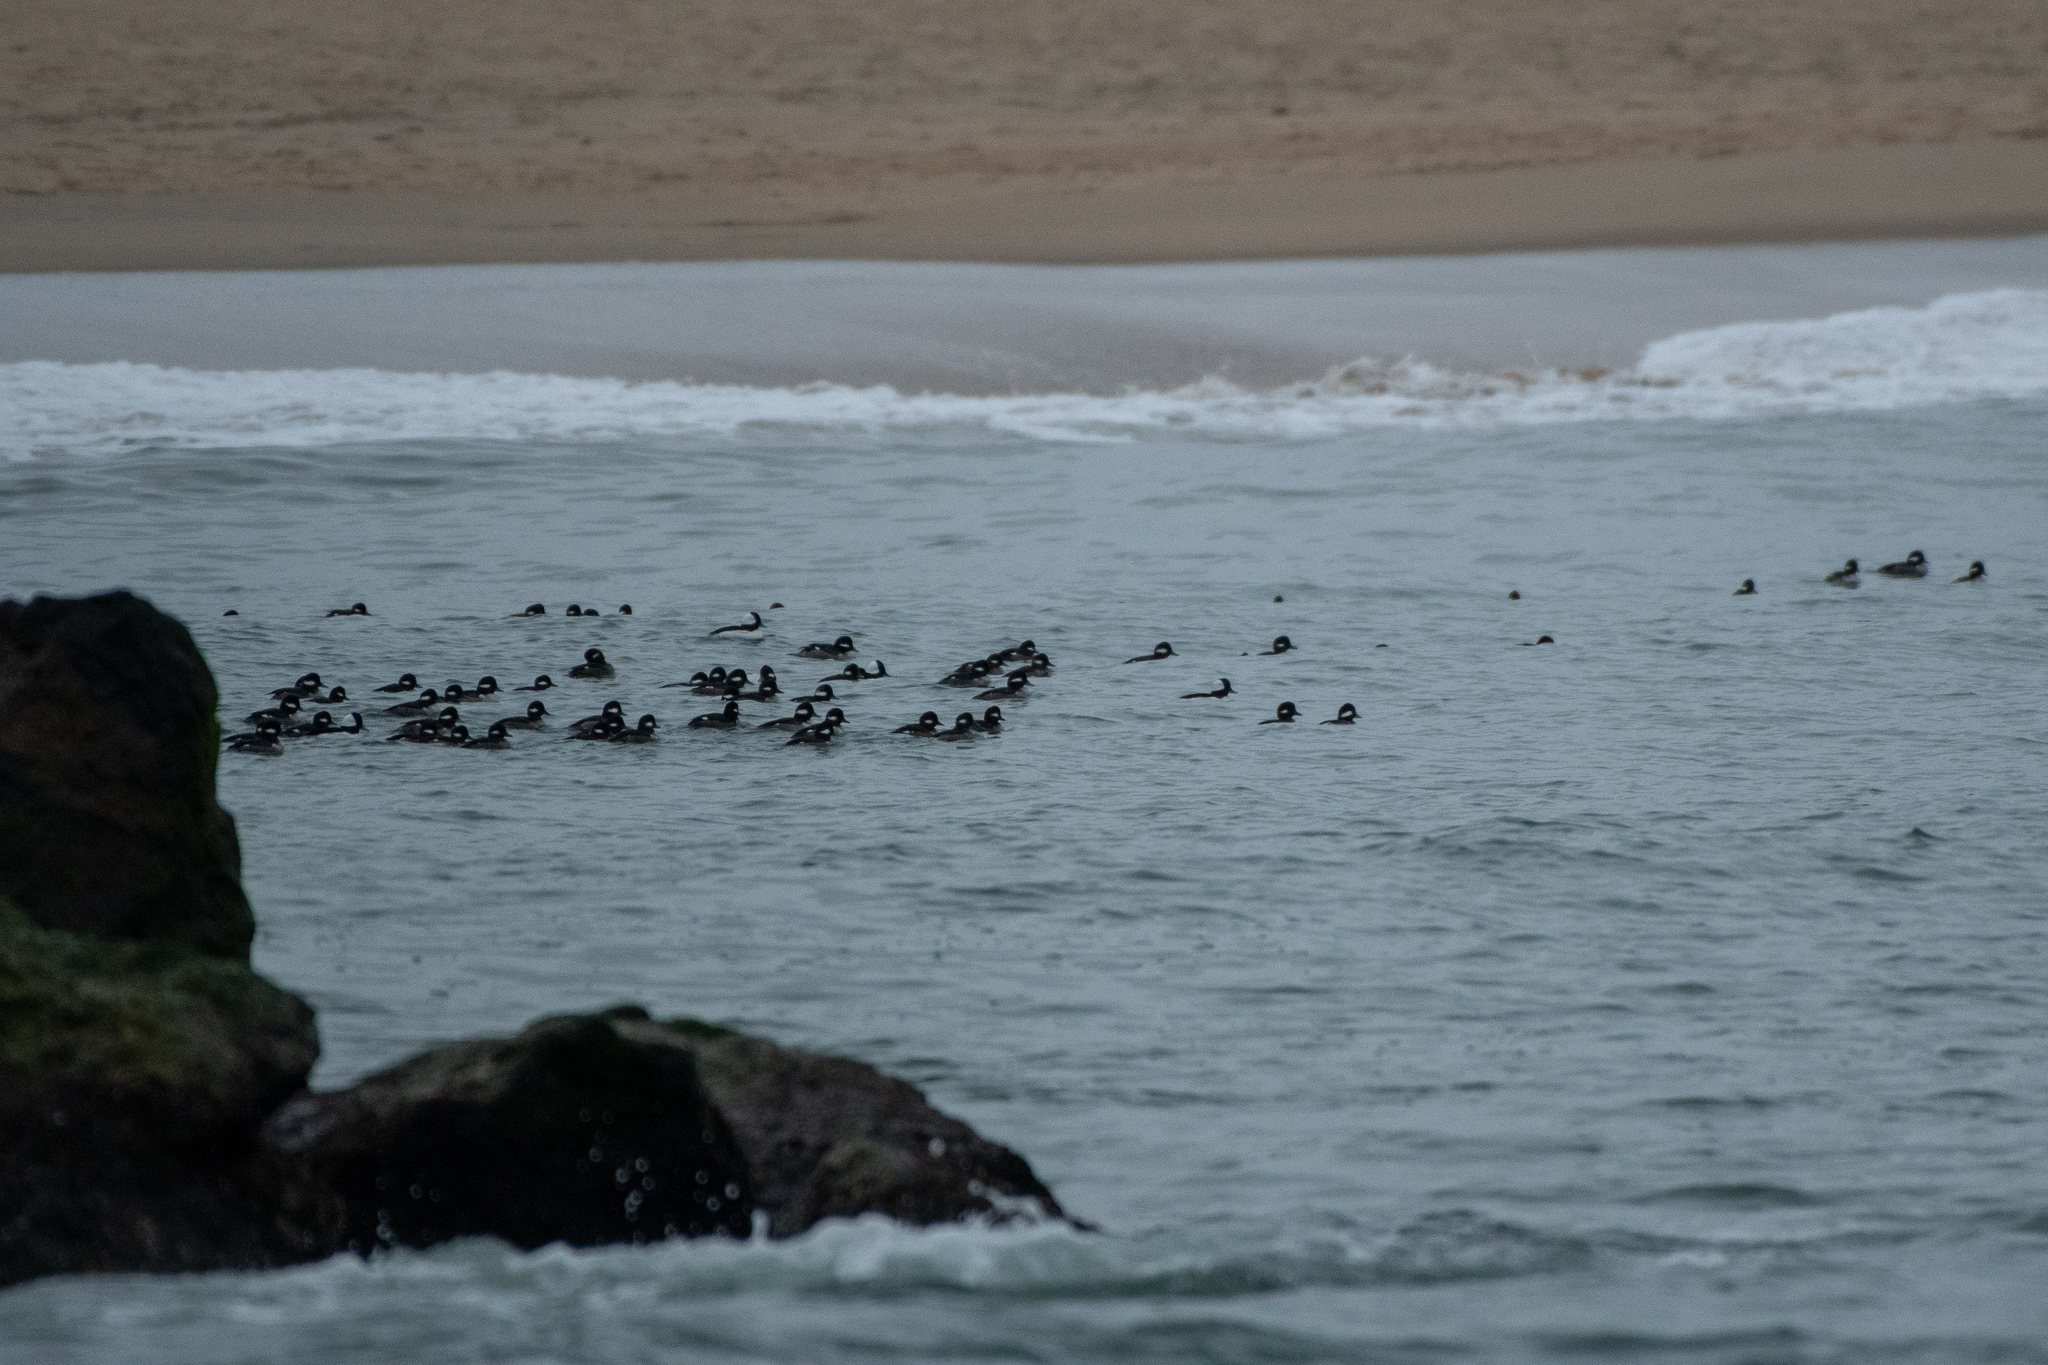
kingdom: Animalia
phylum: Chordata
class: Aves
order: Anseriformes
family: Anatidae
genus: Bucephala
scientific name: Bucephala albeola
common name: Bufflehead
